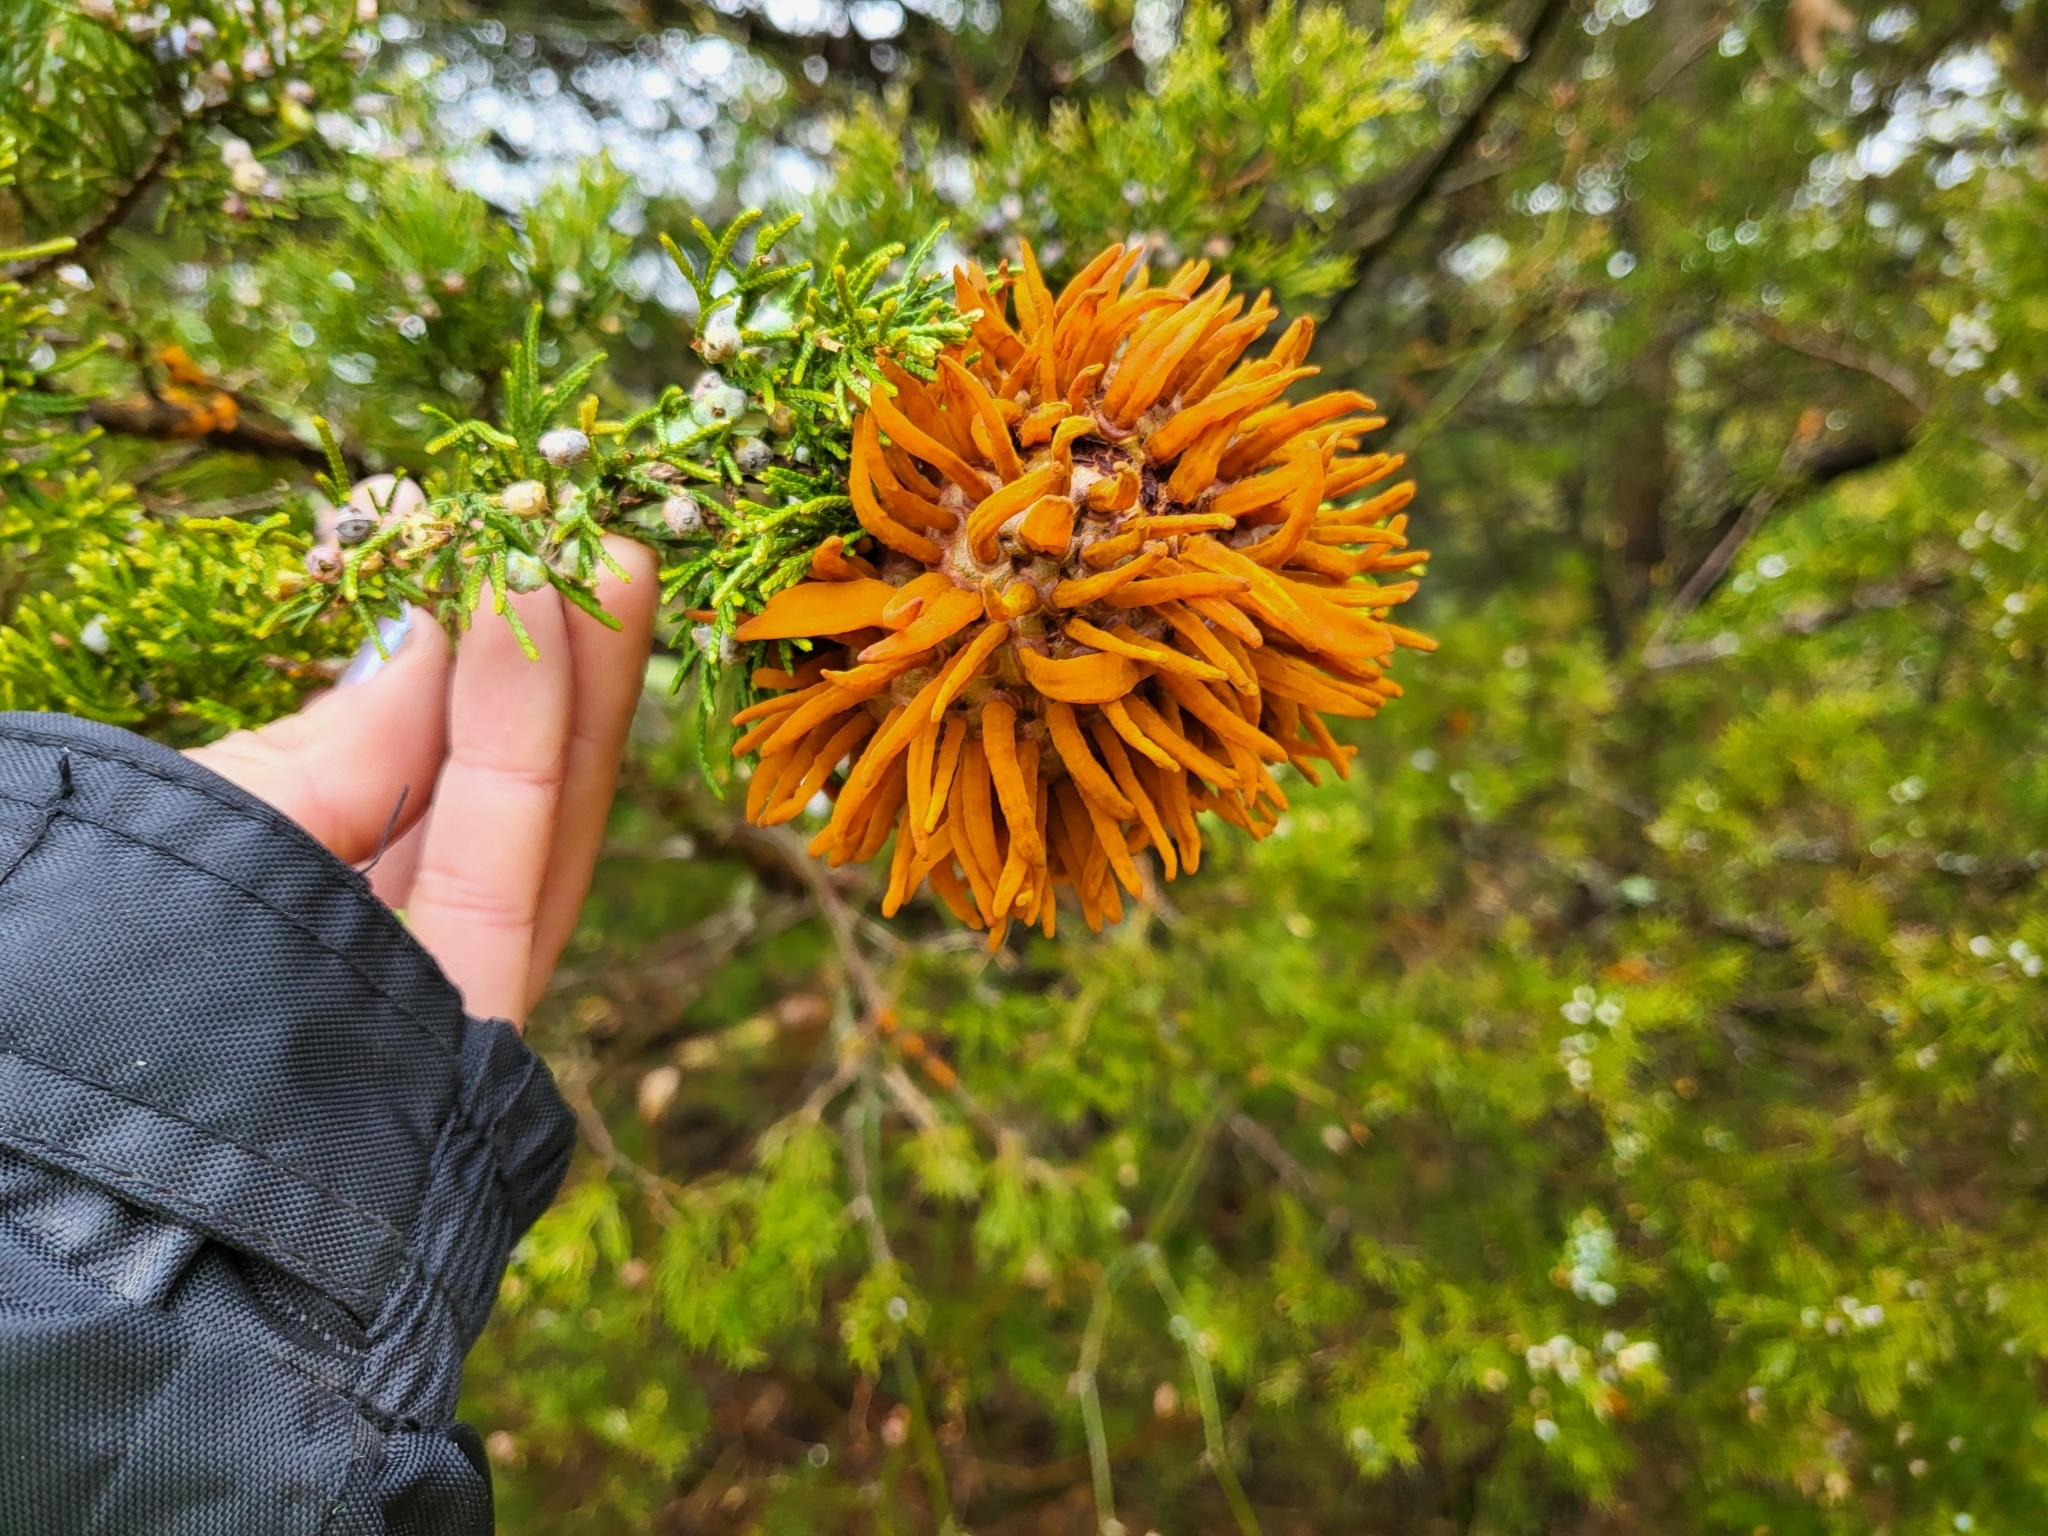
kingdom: Fungi
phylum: Basidiomycota
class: Pucciniomycetes
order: Pucciniales
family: Gymnosporangiaceae
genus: Gymnosporangium
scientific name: Gymnosporangium juniperi-virginianae
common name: Juniper-apple rust
